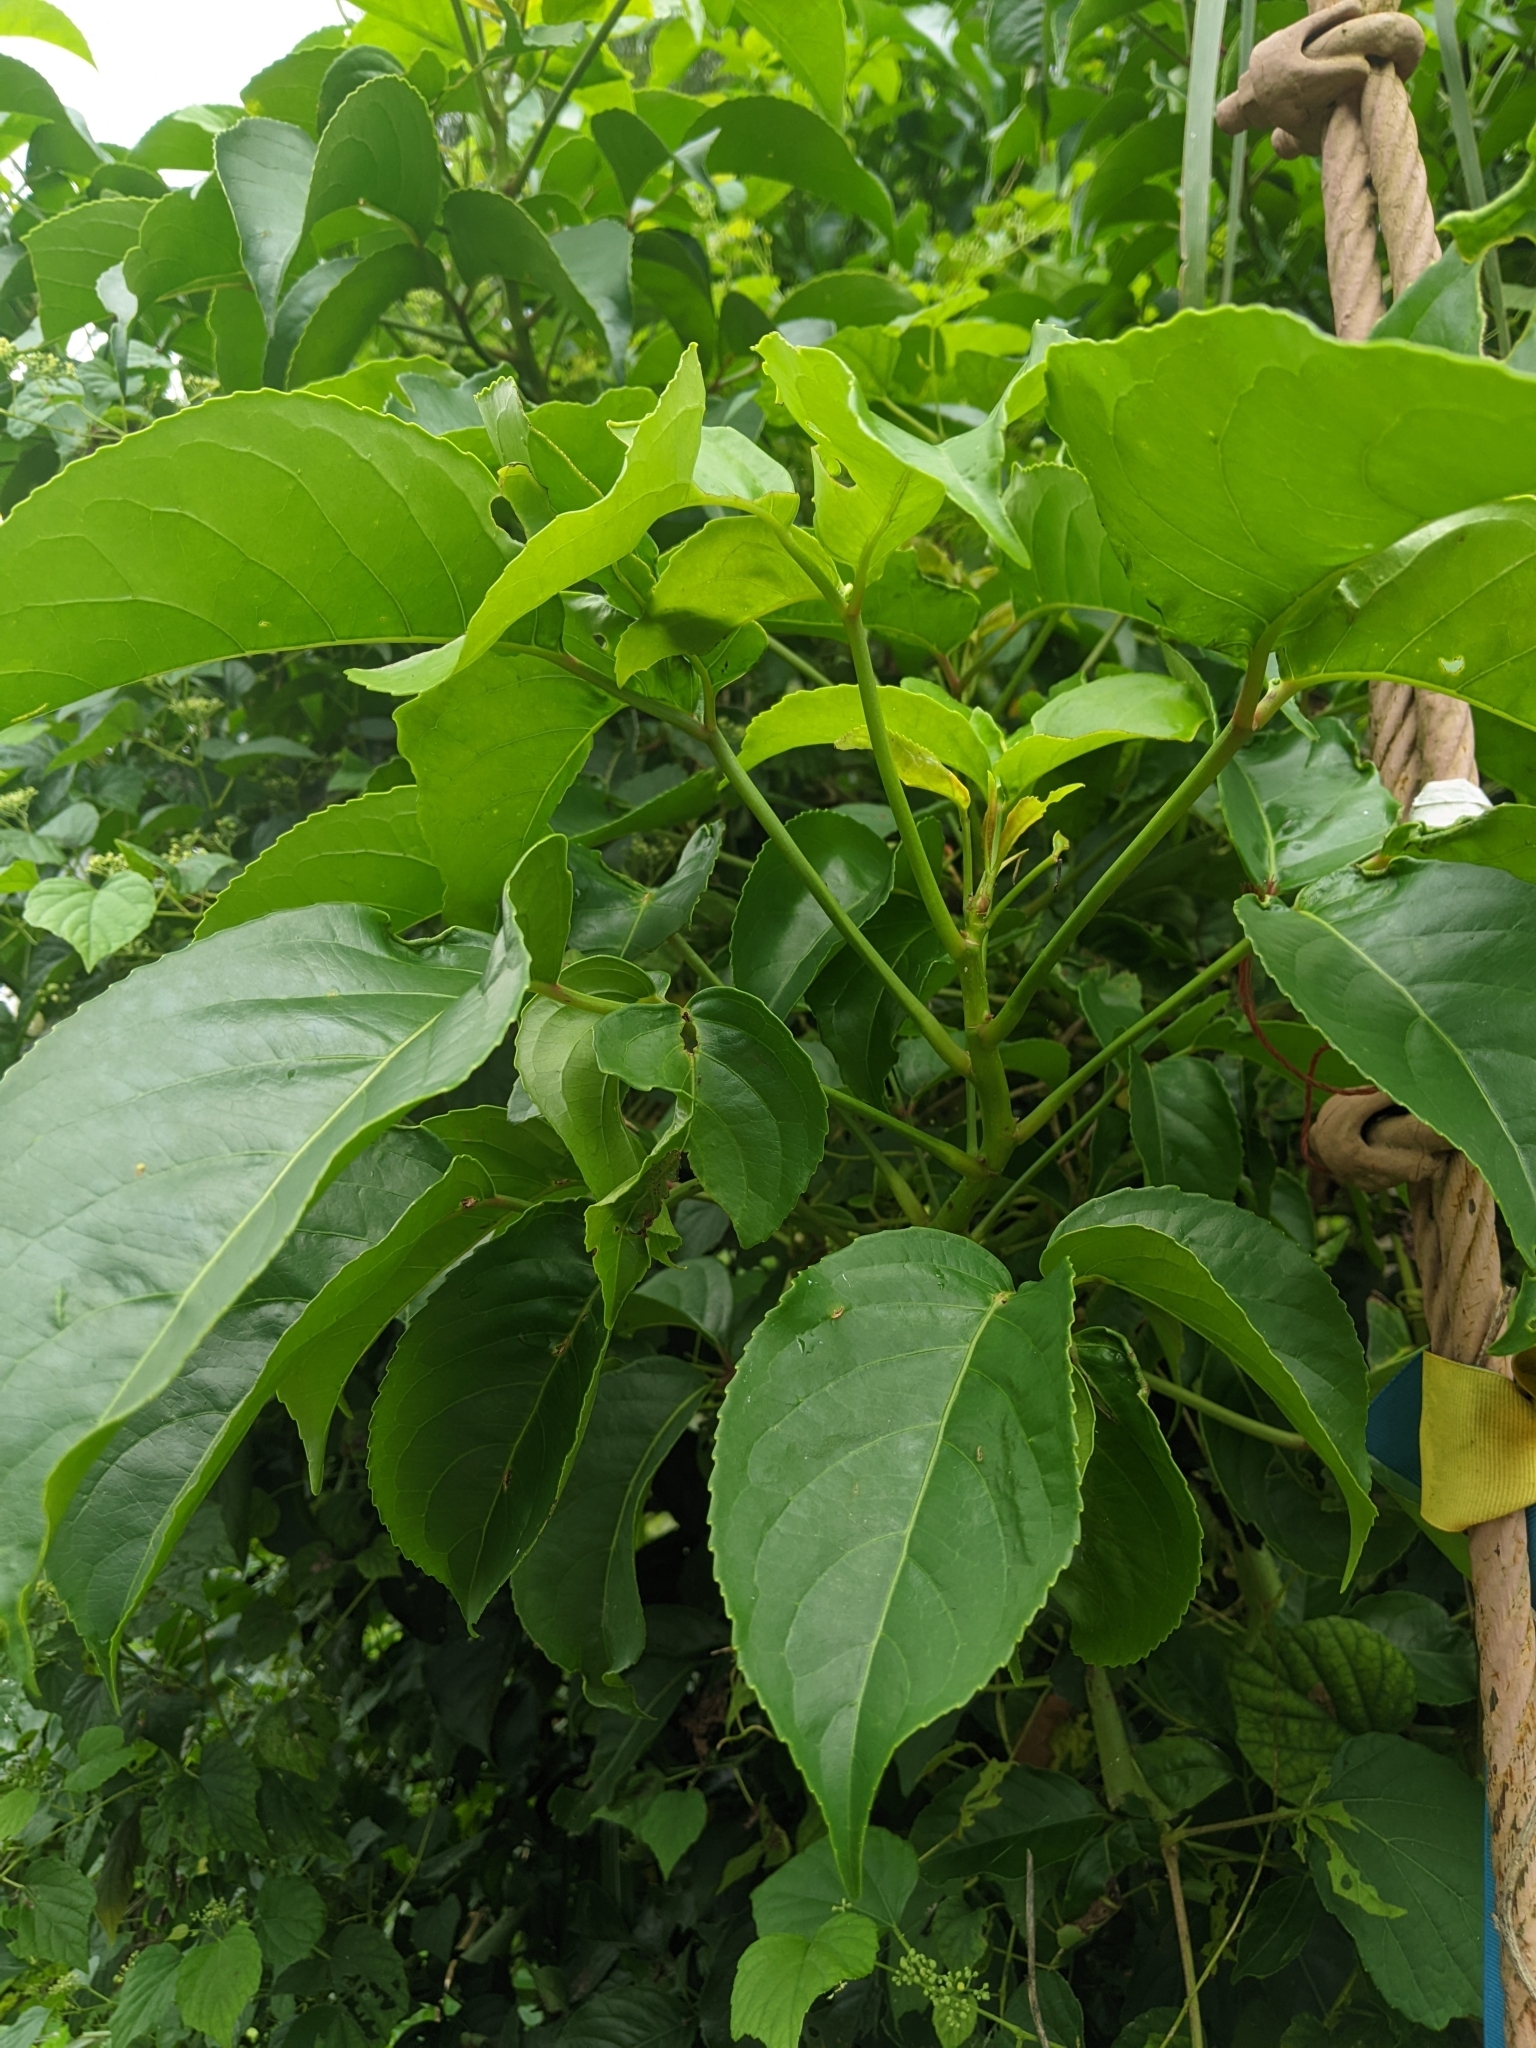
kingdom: Plantae
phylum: Tracheophyta
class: Magnoliopsida
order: Malpighiales
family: Phyllanthaceae
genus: Bischofia
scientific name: Bischofia javanica
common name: Javanese bishopwood
